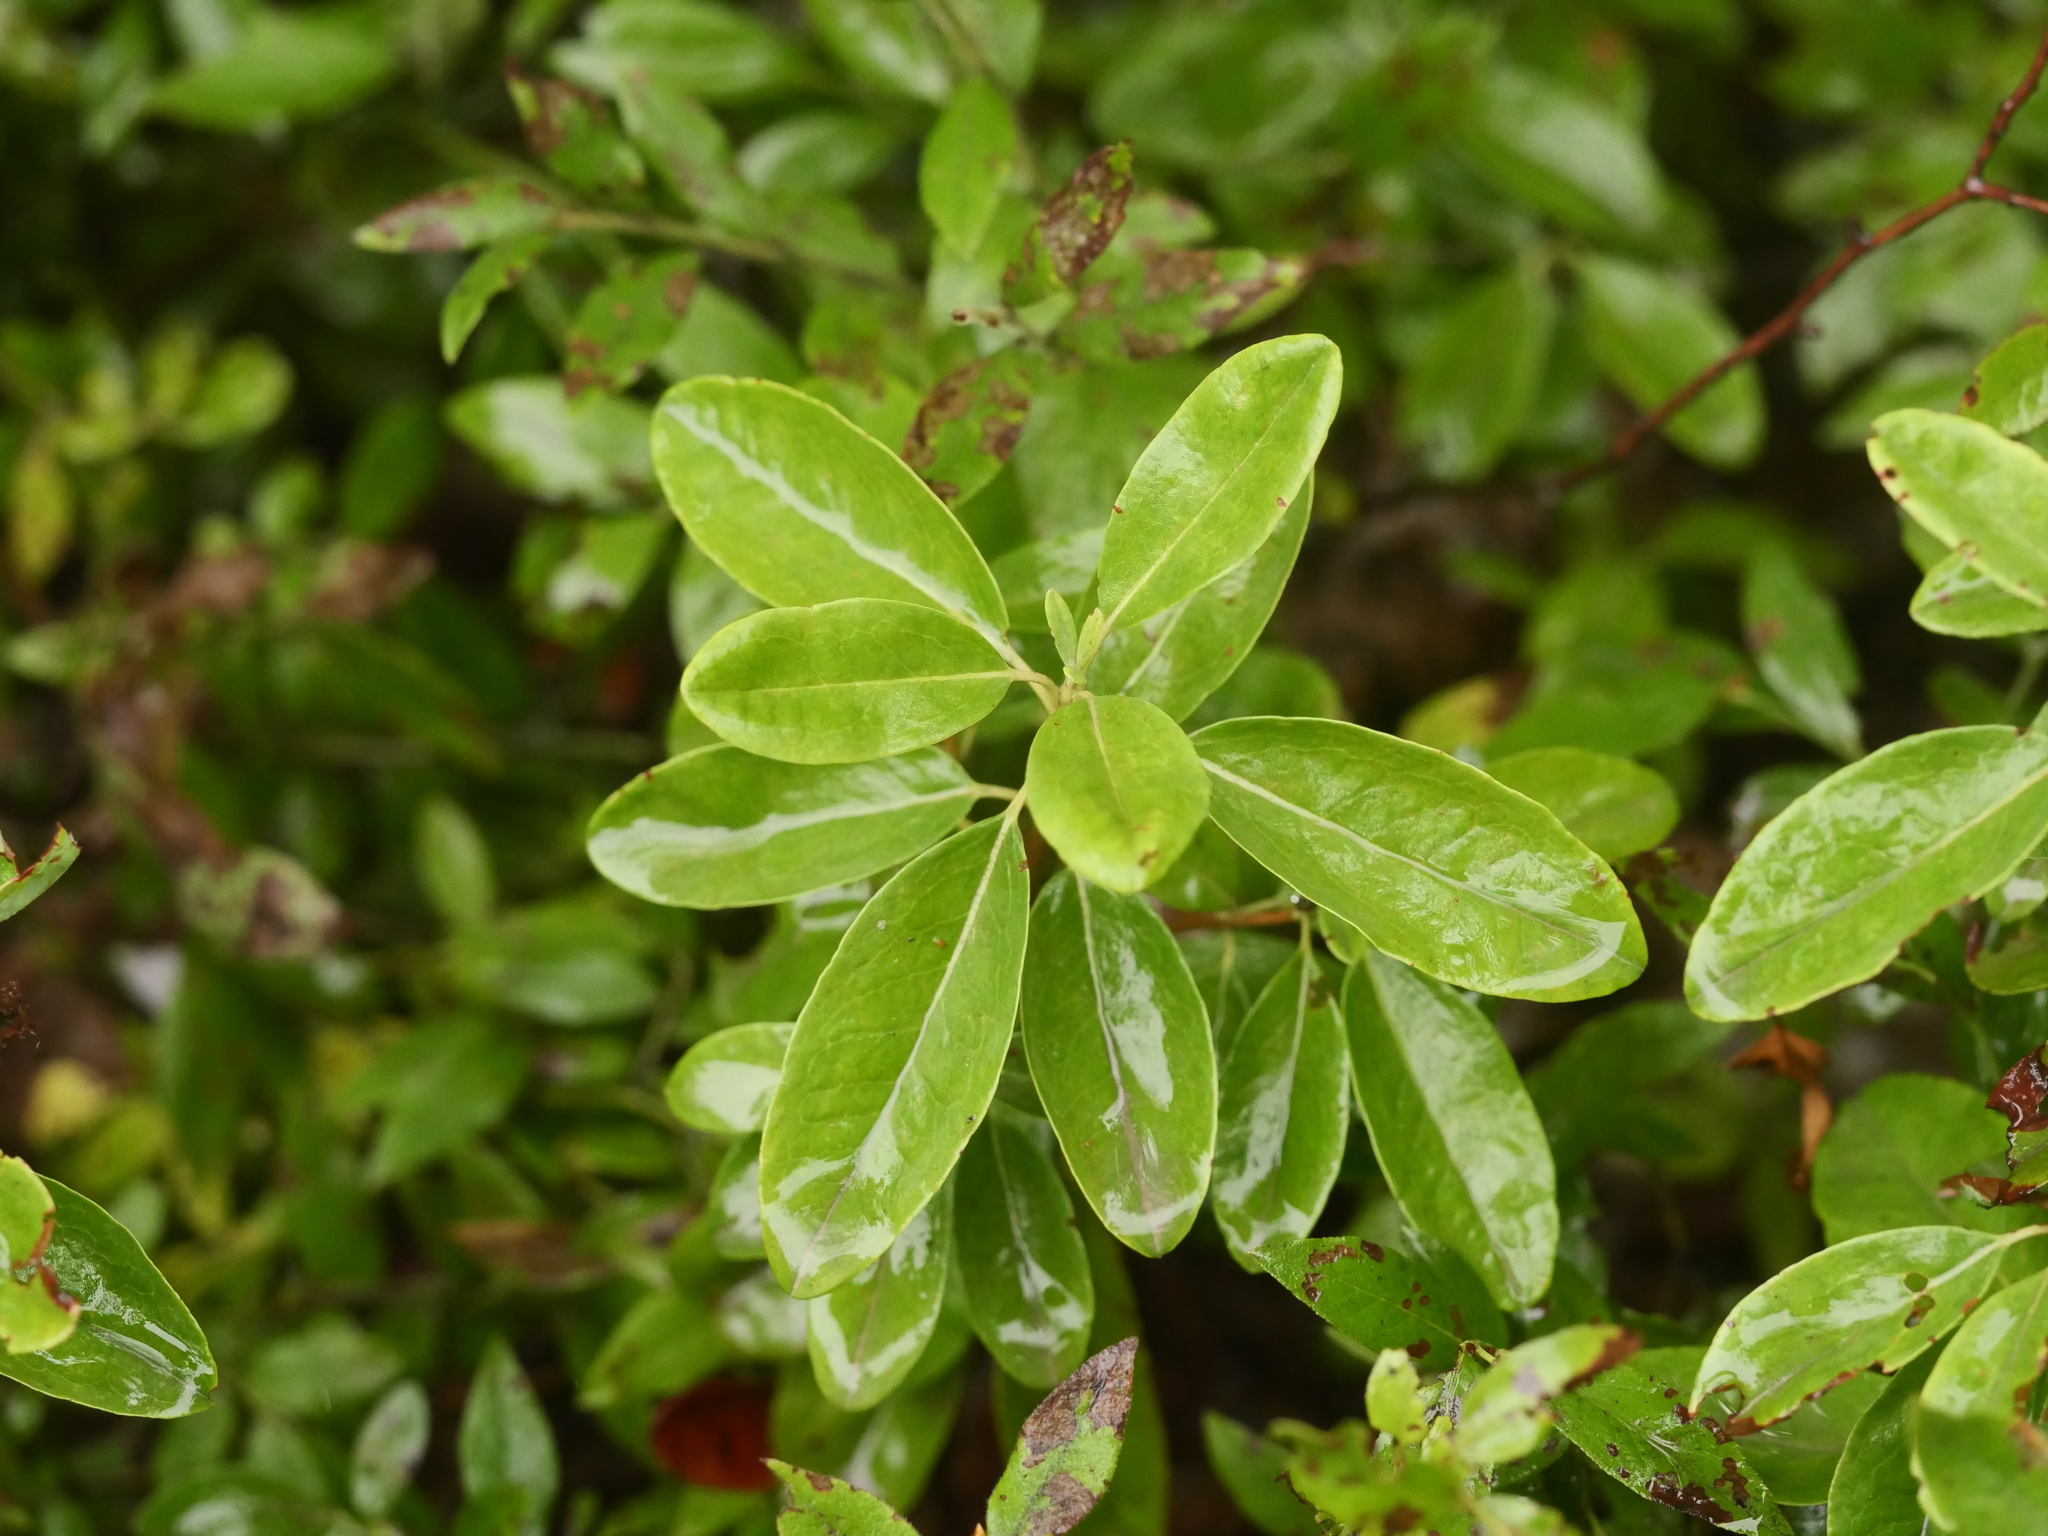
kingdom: Plantae
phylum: Tracheophyta
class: Magnoliopsida
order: Ericales
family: Ericaceae
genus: Kalmia
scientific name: Kalmia angustifolia
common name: Sheep-laurel
